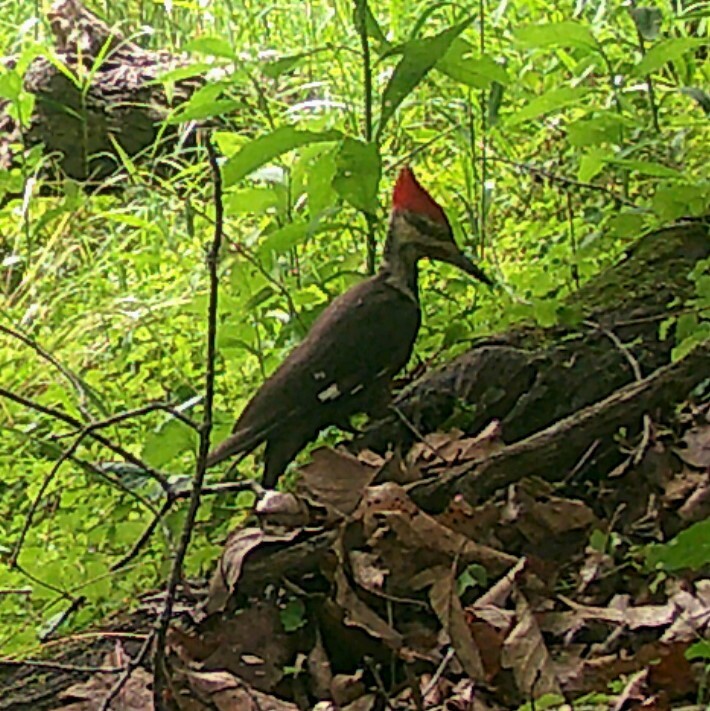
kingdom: Animalia
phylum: Chordata
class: Aves
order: Piciformes
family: Picidae
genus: Dryocopus
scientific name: Dryocopus pileatus
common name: Pileated woodpecker
